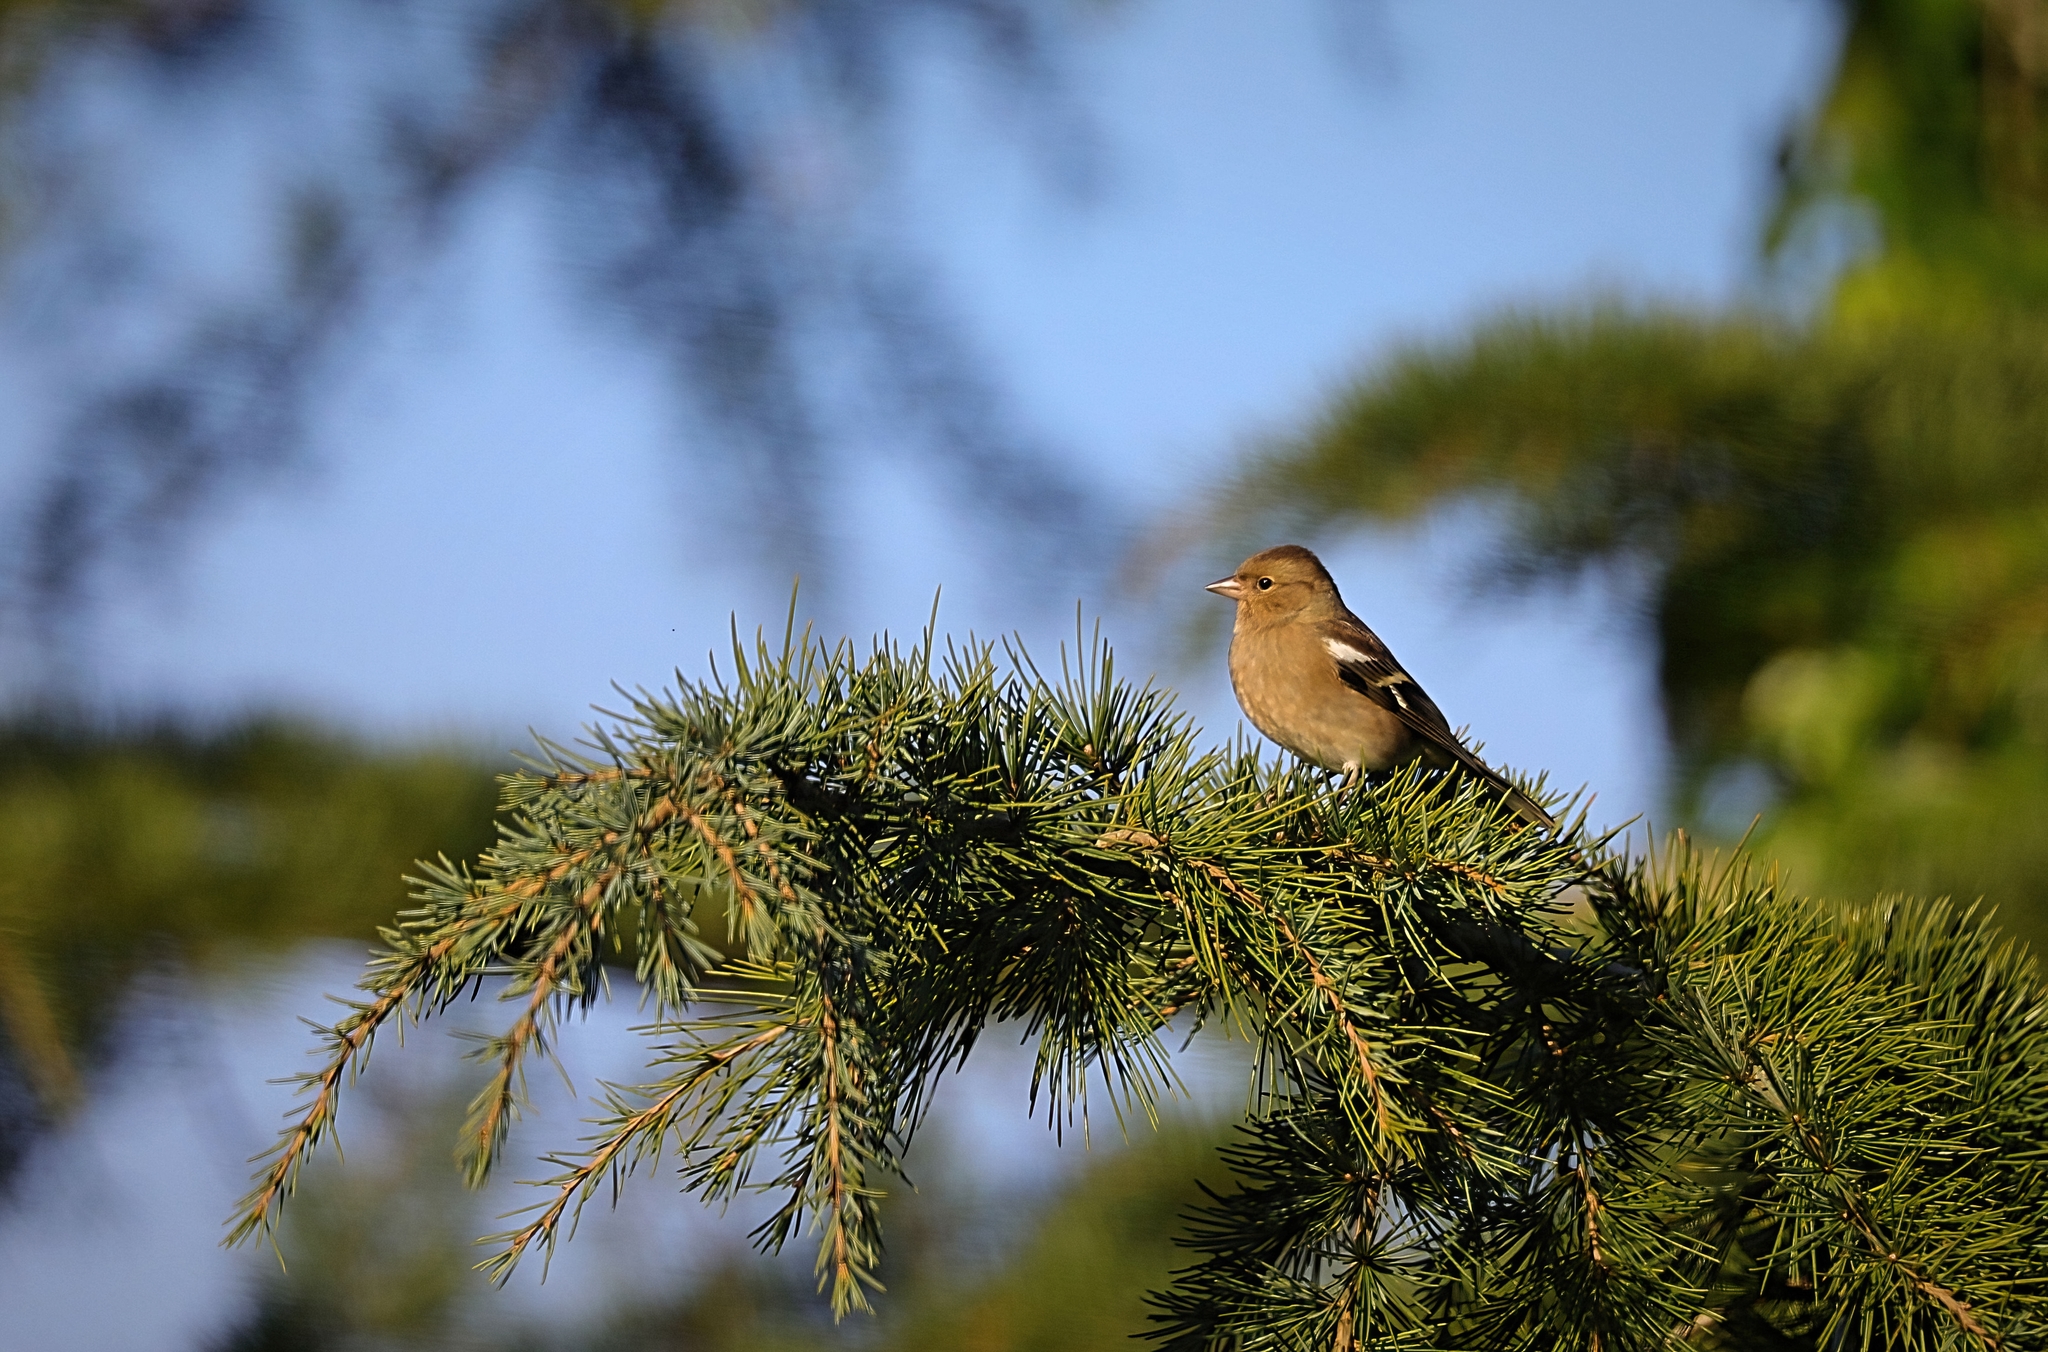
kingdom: Animalia
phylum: Chordata
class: Aves
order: Passeriformes
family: Fringillidae
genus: Fringilla
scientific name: Fringilla coelebs
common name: Common chaffinch
